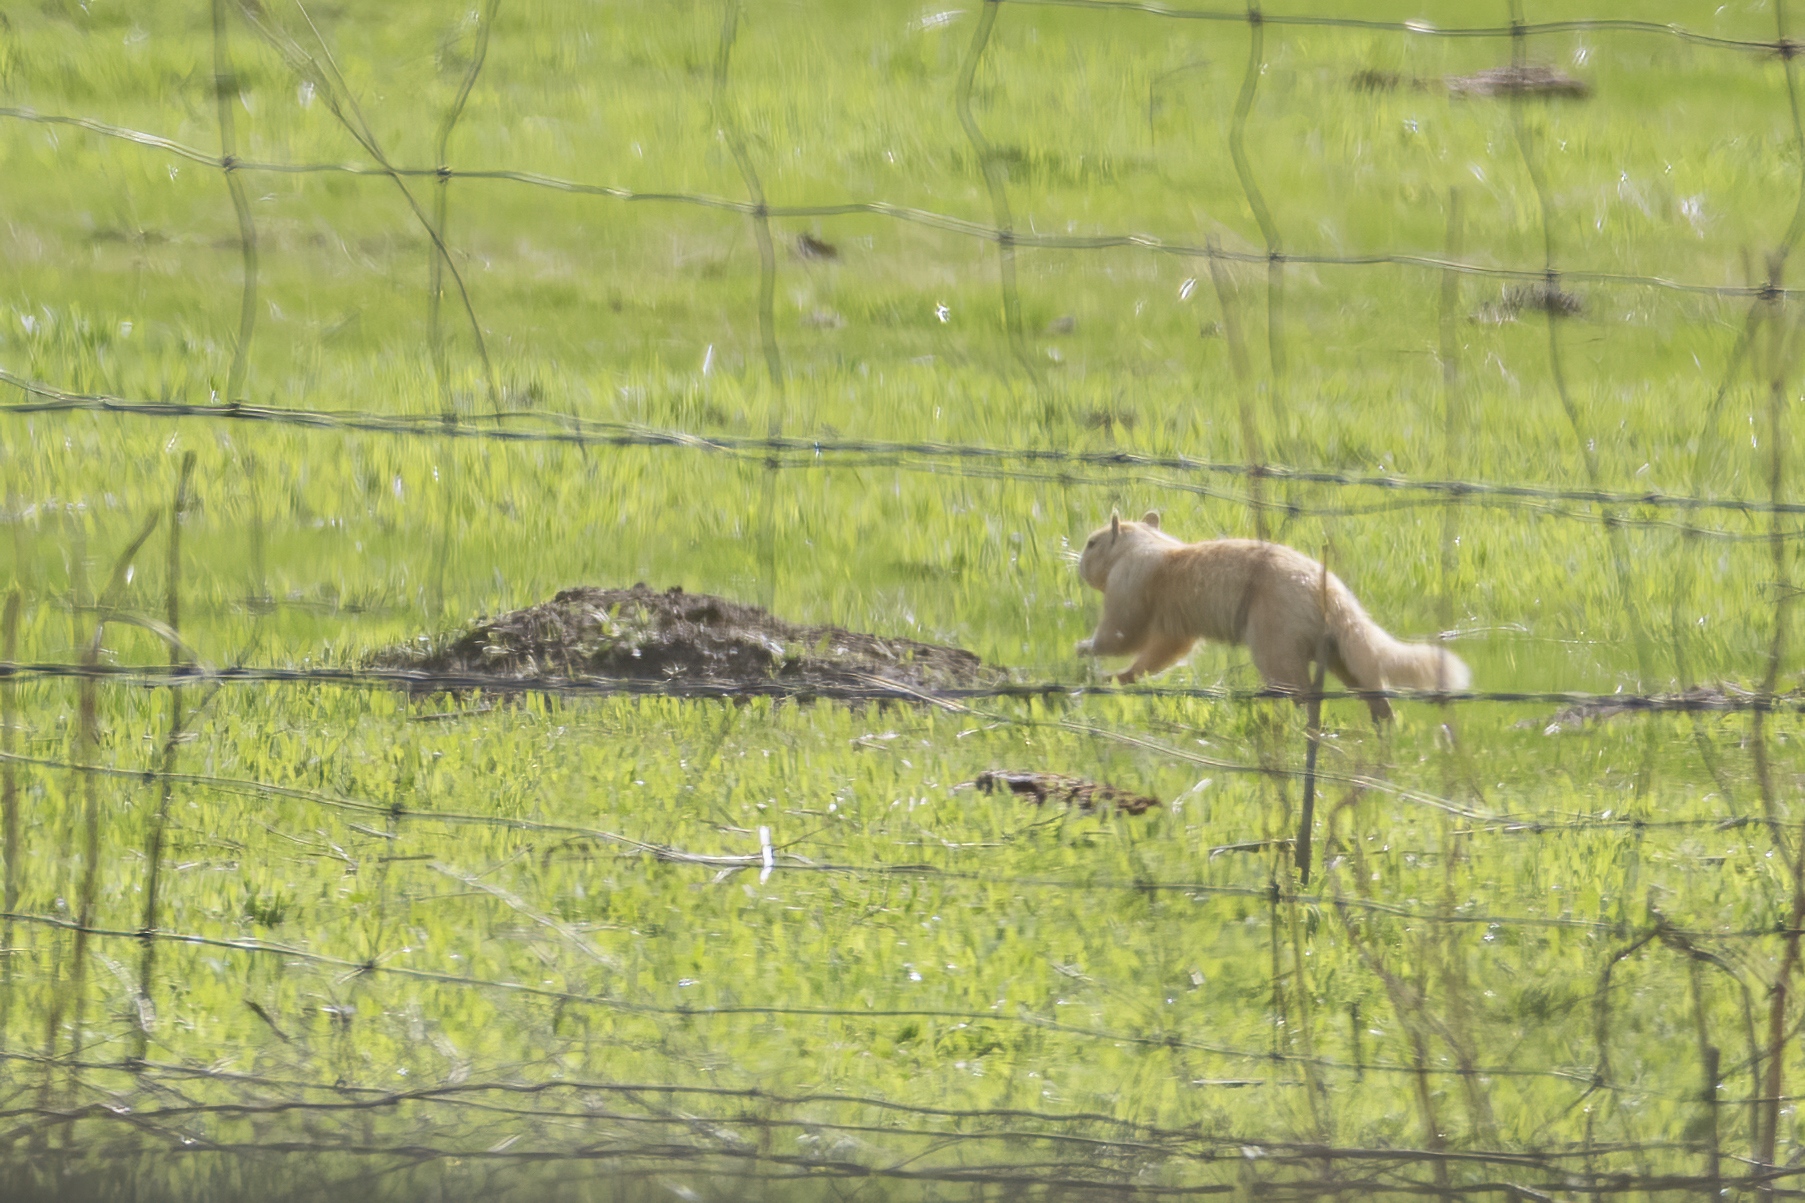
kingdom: Animalia
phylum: Chordata
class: Mammalia
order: Rodentia
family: Sciuridae
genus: Otospermophilus
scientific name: Otospermophilus beecheyi
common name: California ground squirrel
